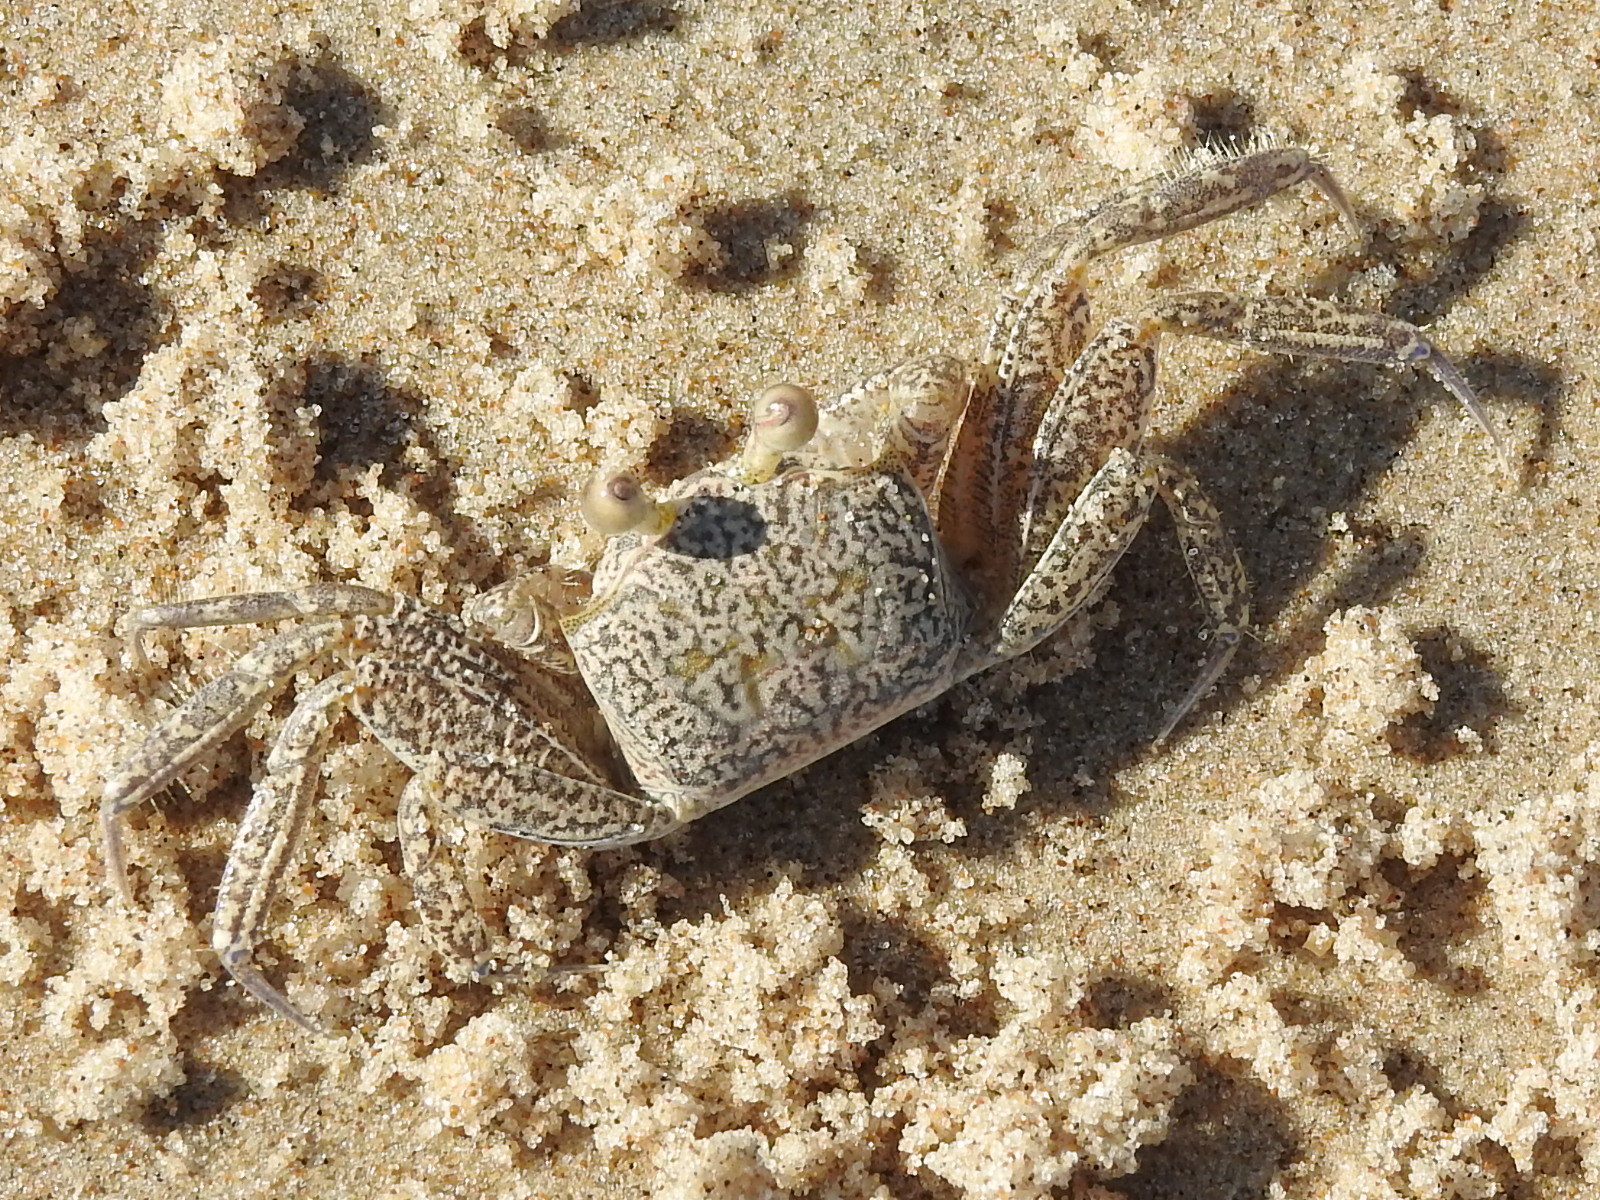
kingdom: Animalia
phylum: Arthropoda
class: Malacostraca
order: Decapoda
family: Ocypodidae
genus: Ocypode
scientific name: Ocypode quadrata
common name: Ghost crab
